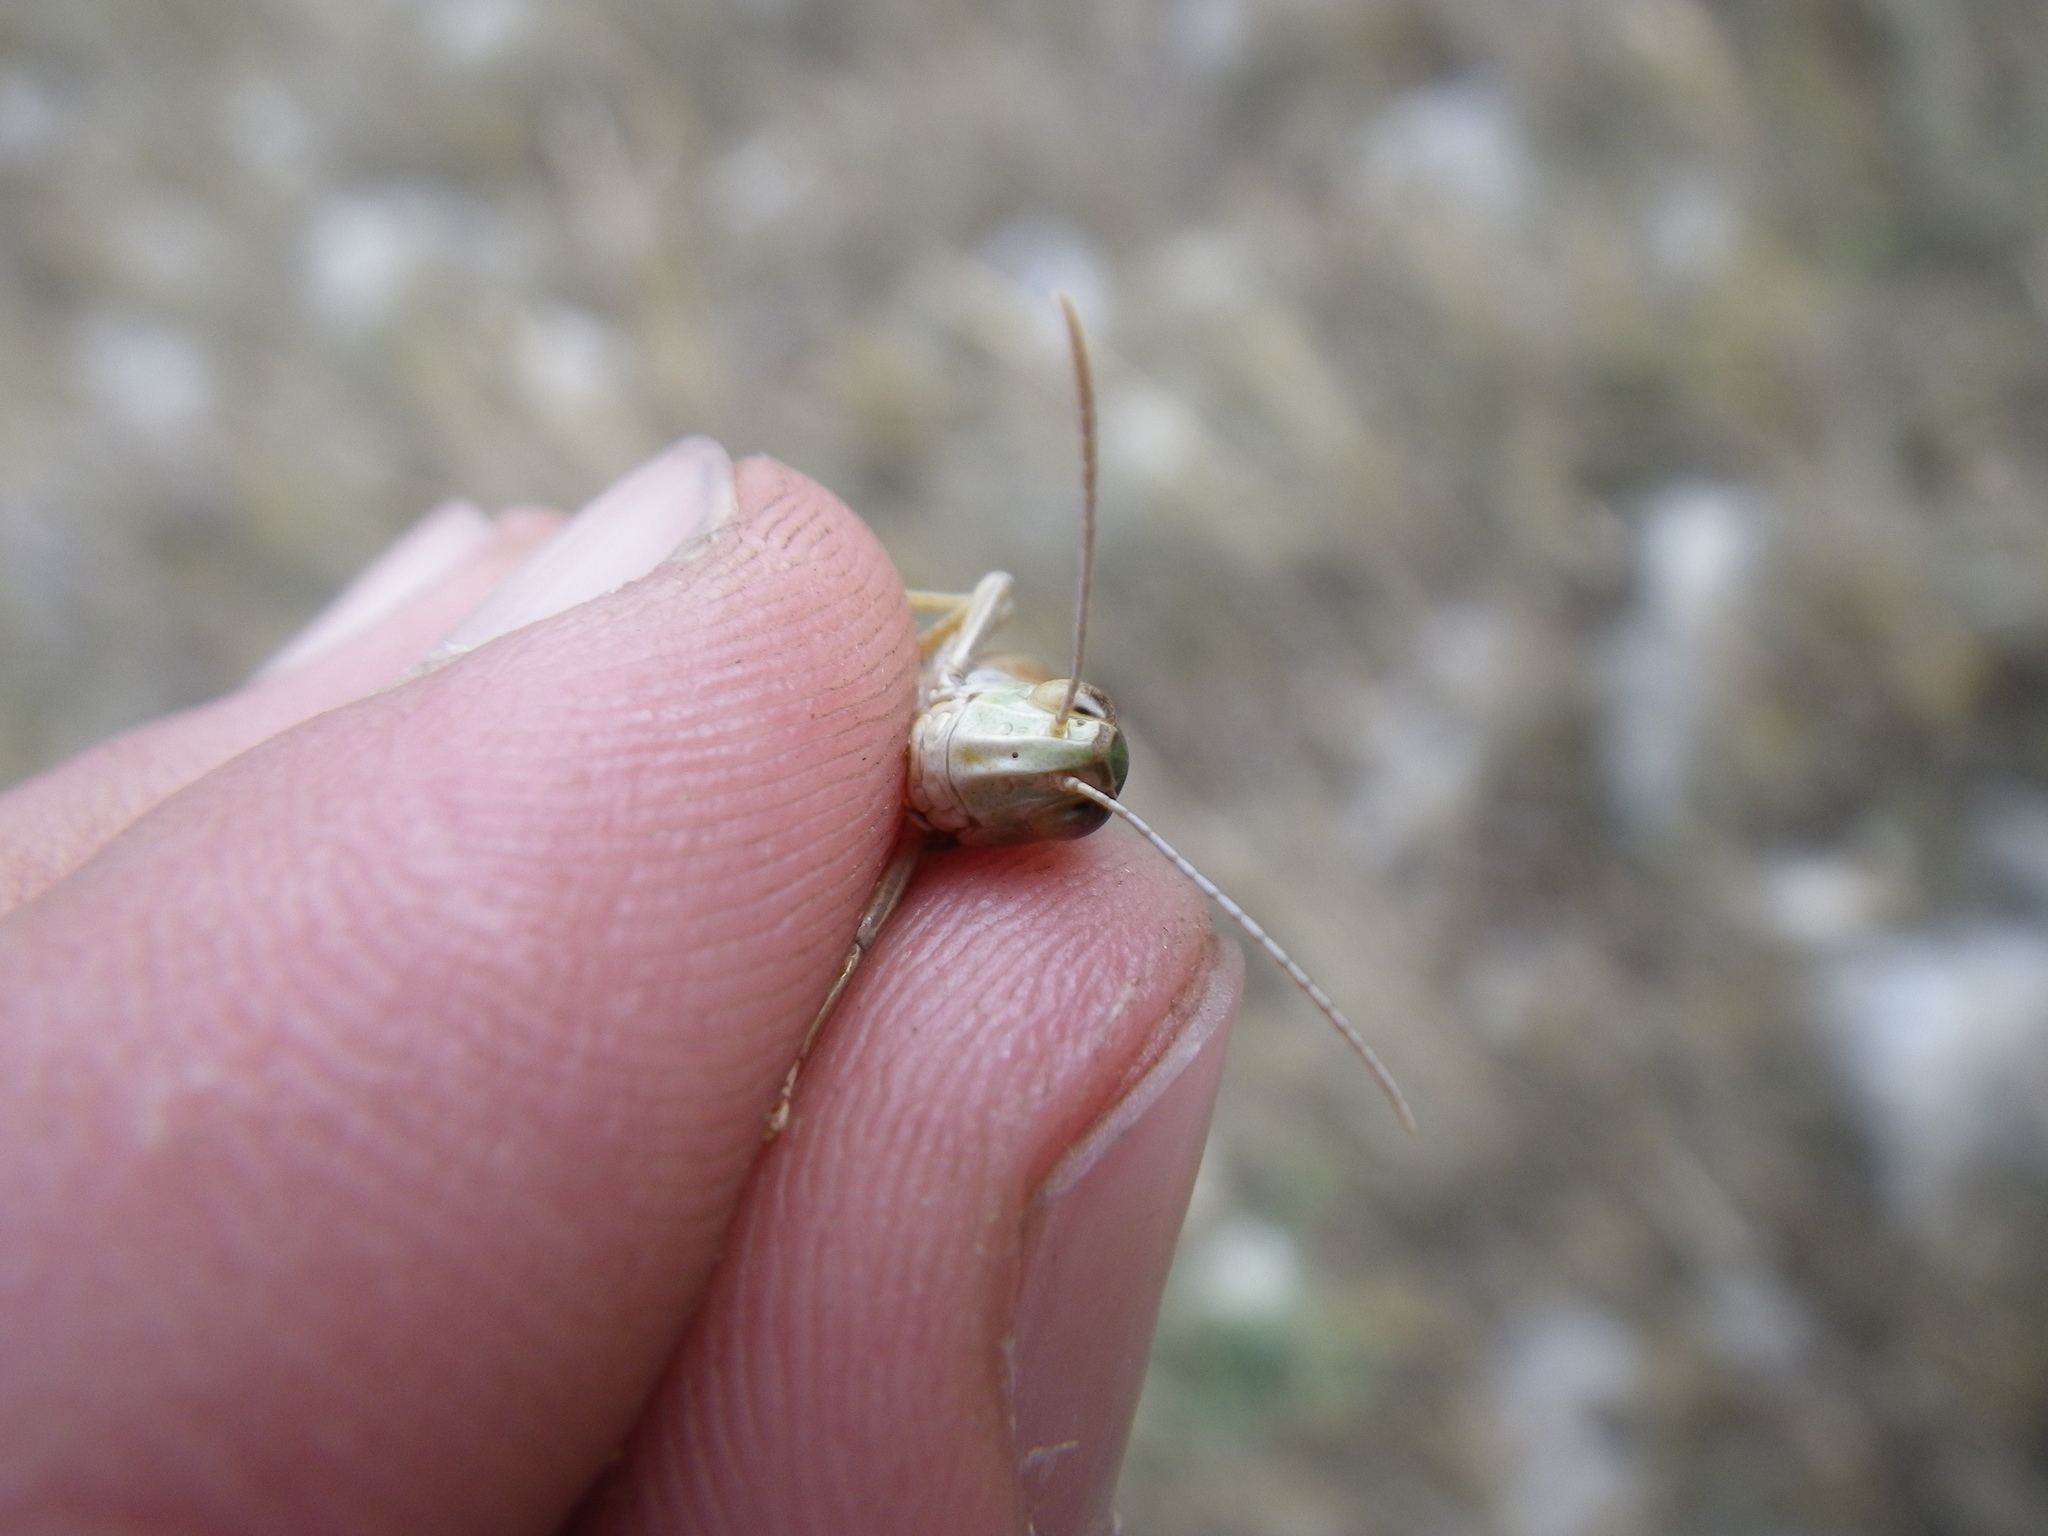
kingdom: Animalia
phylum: Arthropoda
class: Insecta
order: Orthoptera
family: Acrididae
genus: Stenobothrus
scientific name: Stenobothrus fischeri
